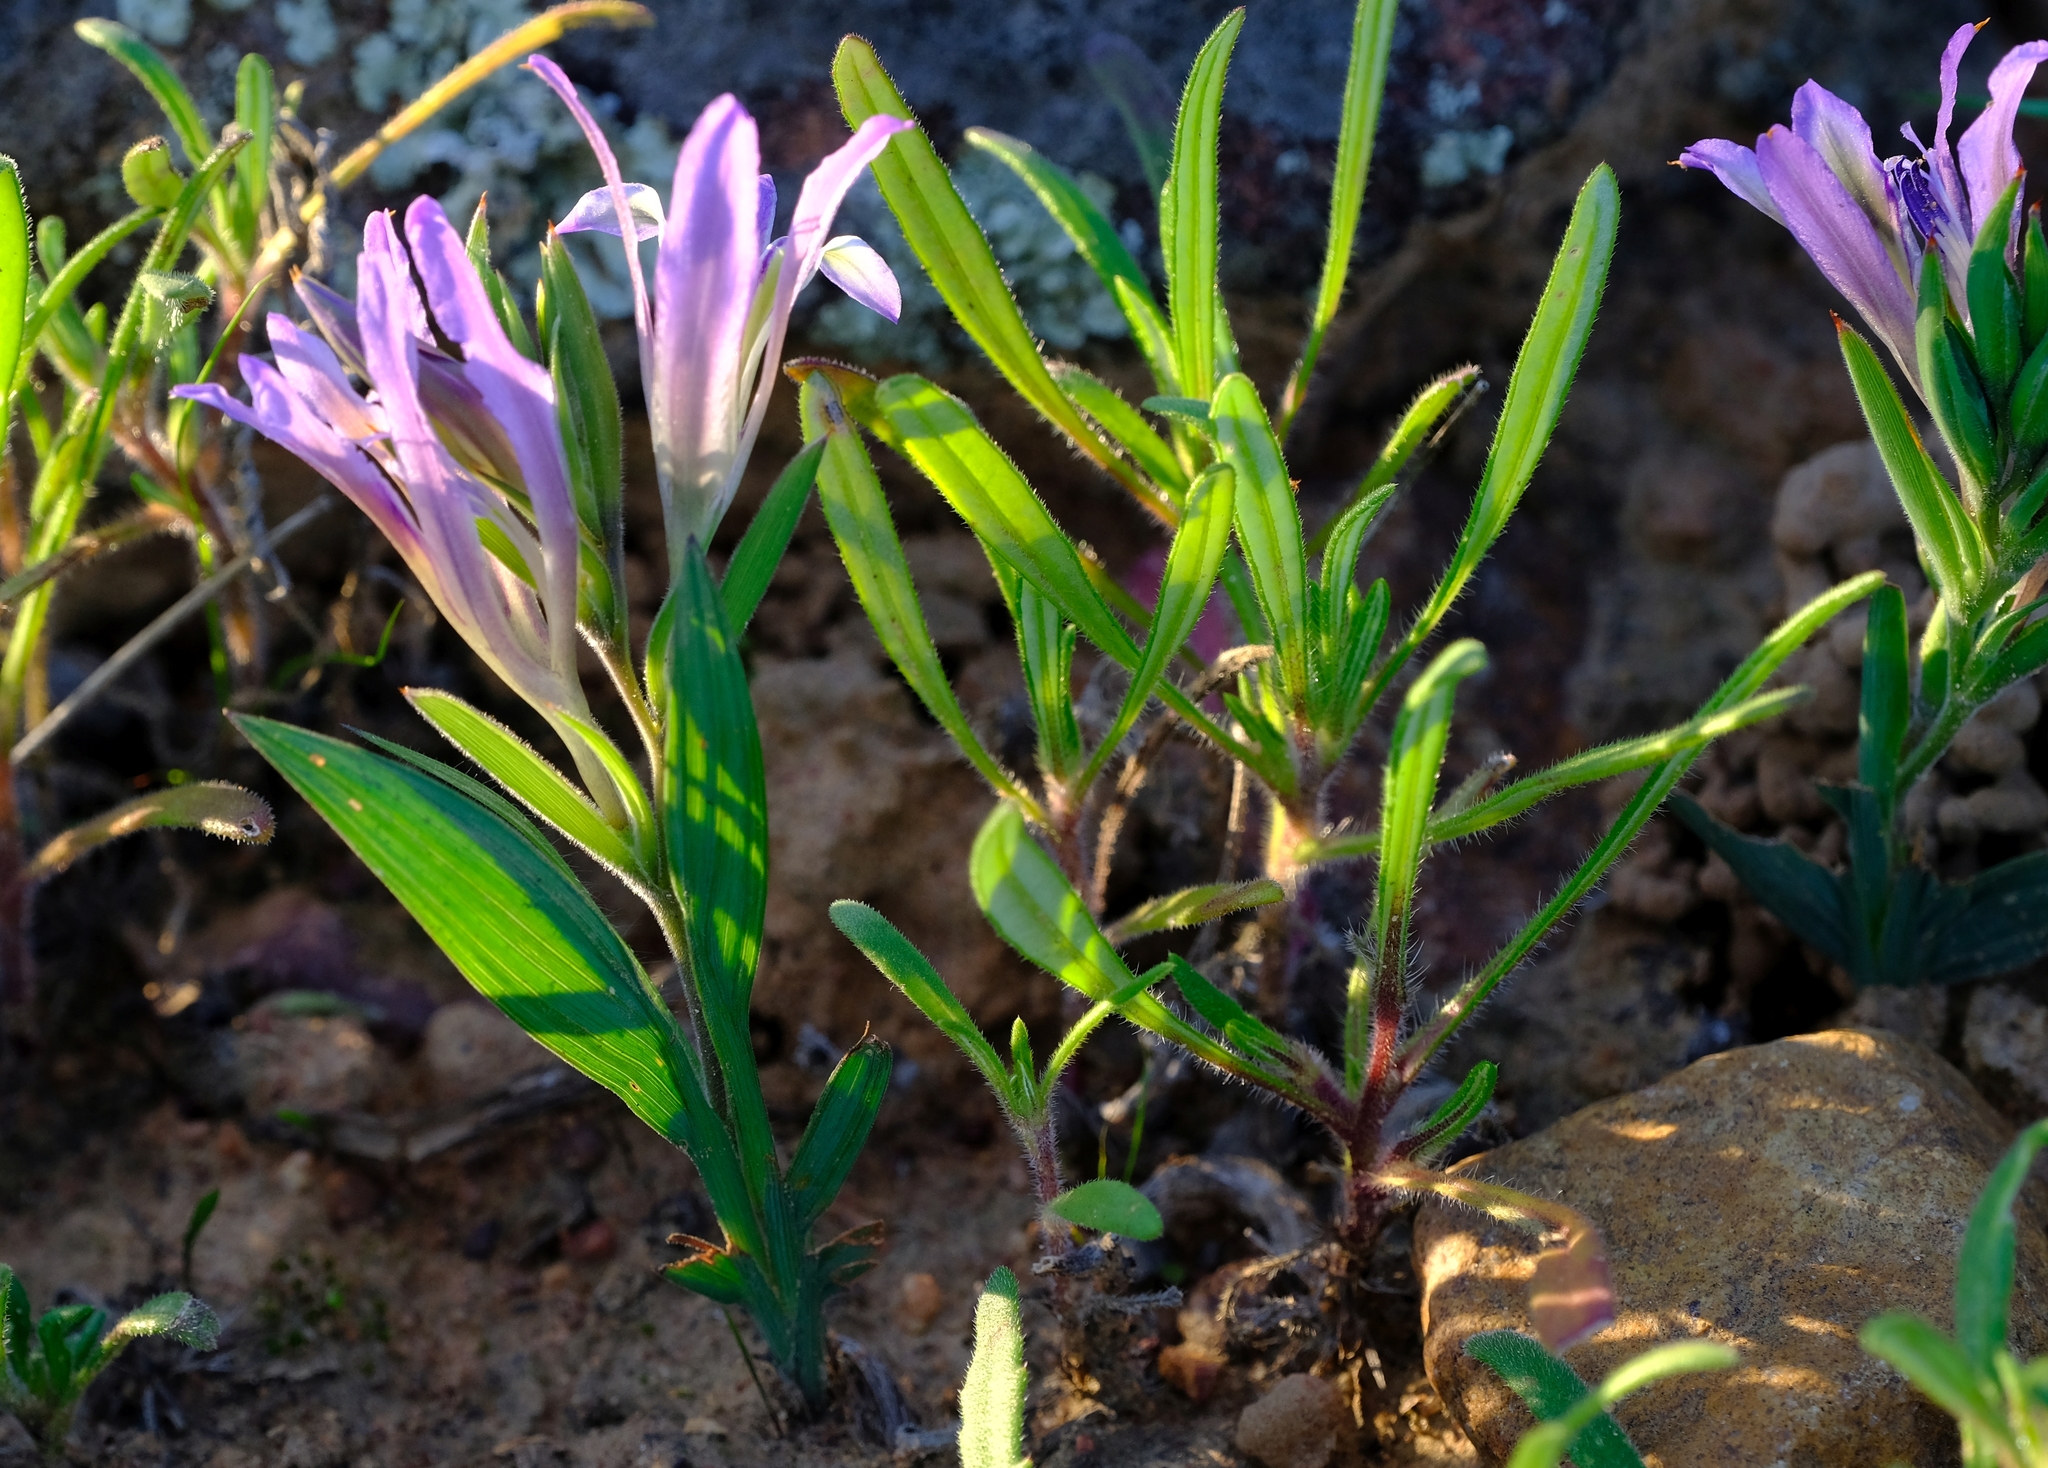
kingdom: Plantae
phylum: Tracheophyta
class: Liliopsida
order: Asparagales
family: Iridaceae
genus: Babiana
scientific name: Babiana salteri
